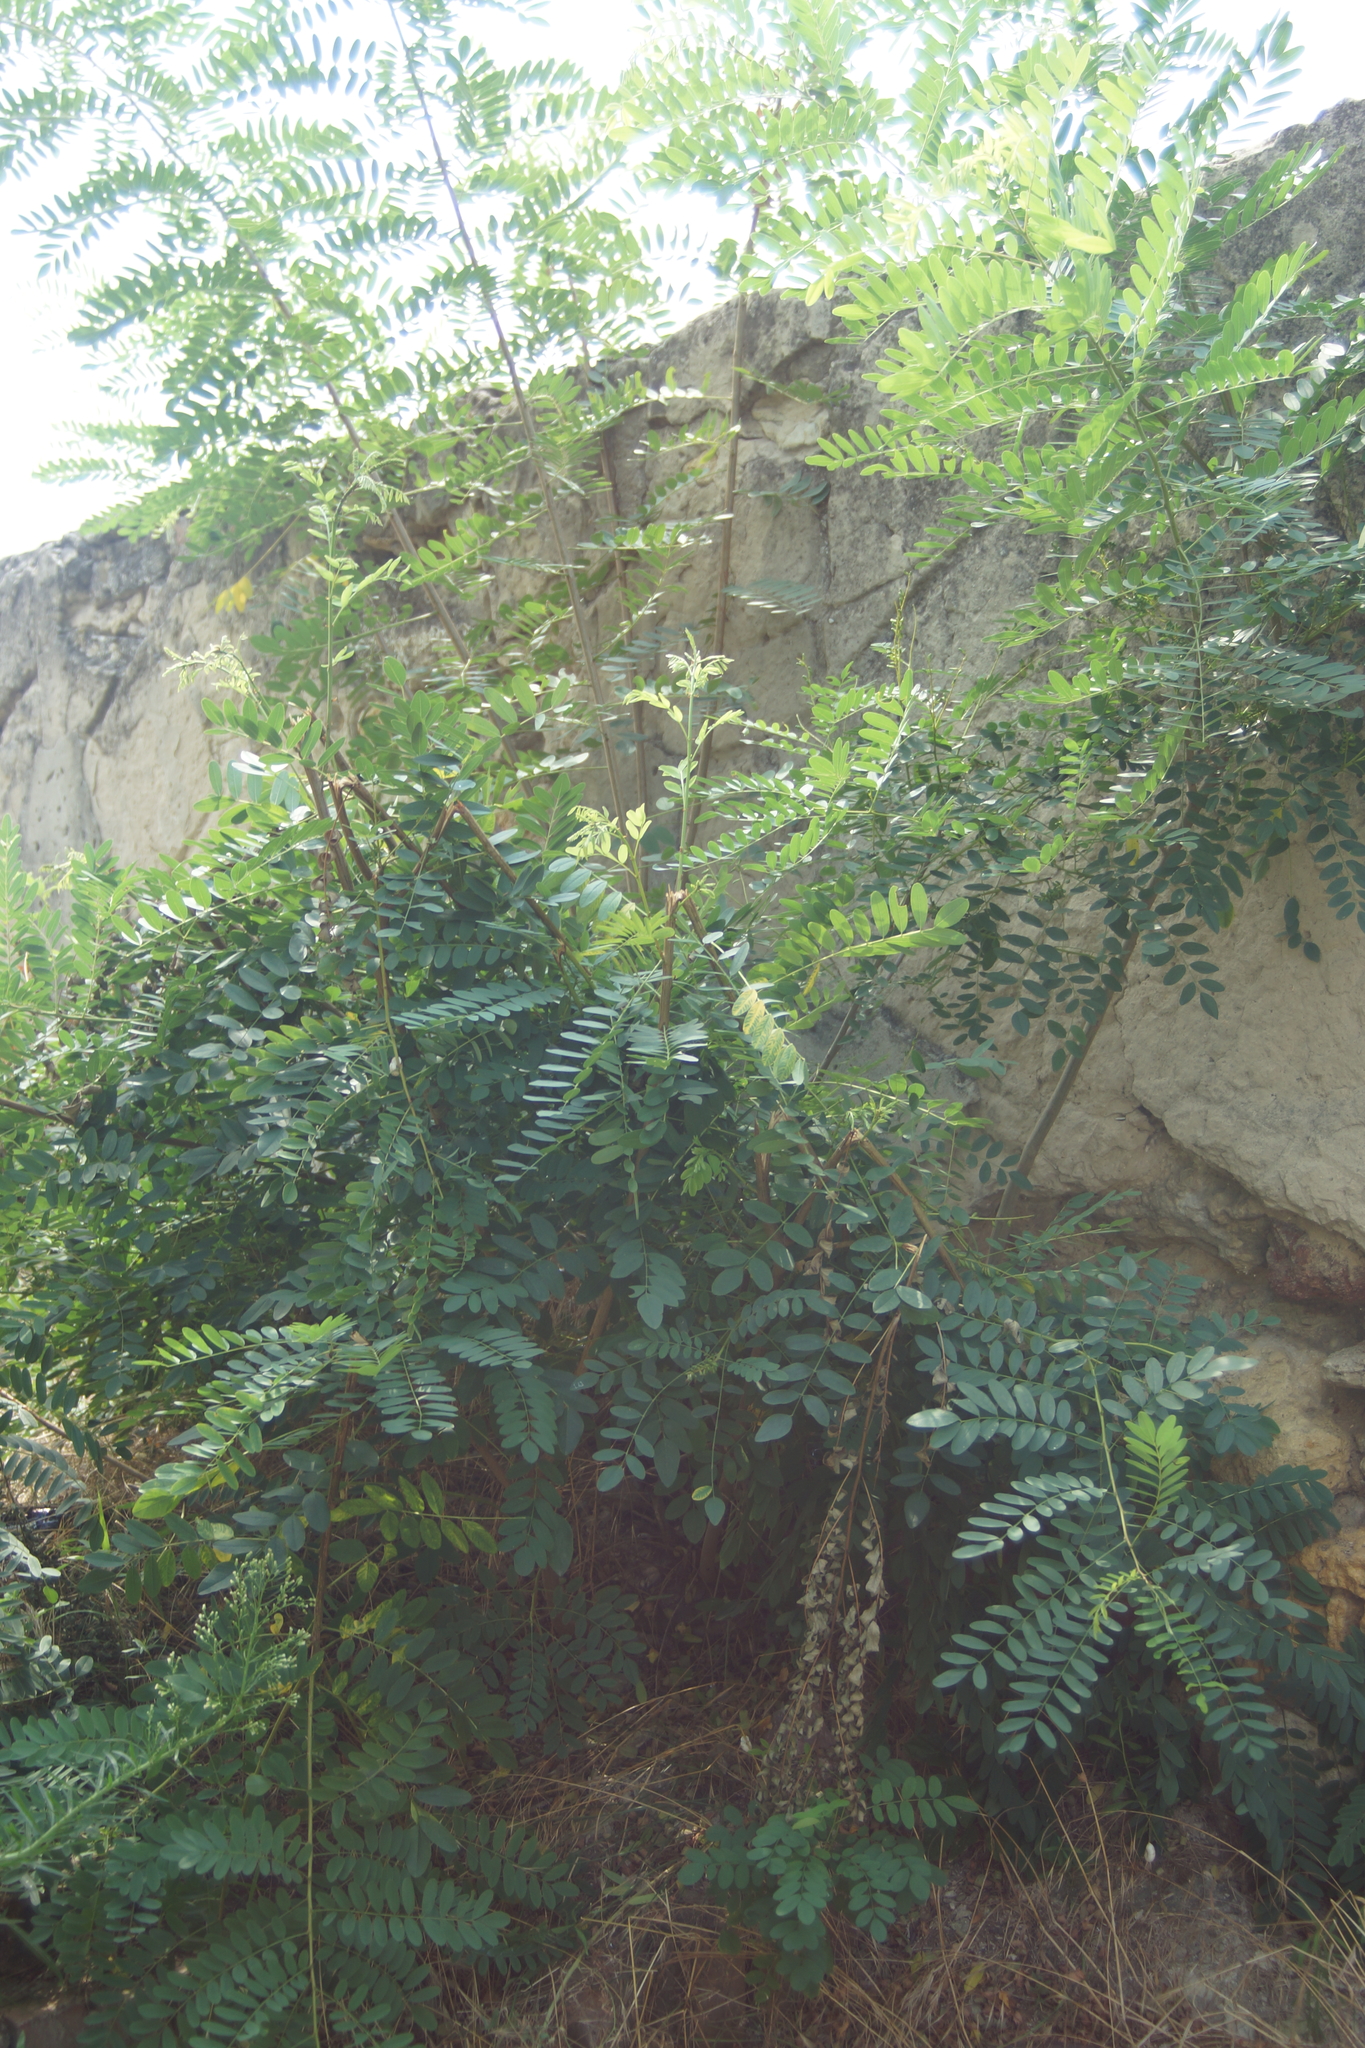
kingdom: Plantae
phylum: Tracheophyta
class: Magnoliopsida
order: Fabales
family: Fabaceae
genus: Amorpha
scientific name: Amorpha fruticosa
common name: False indigo
